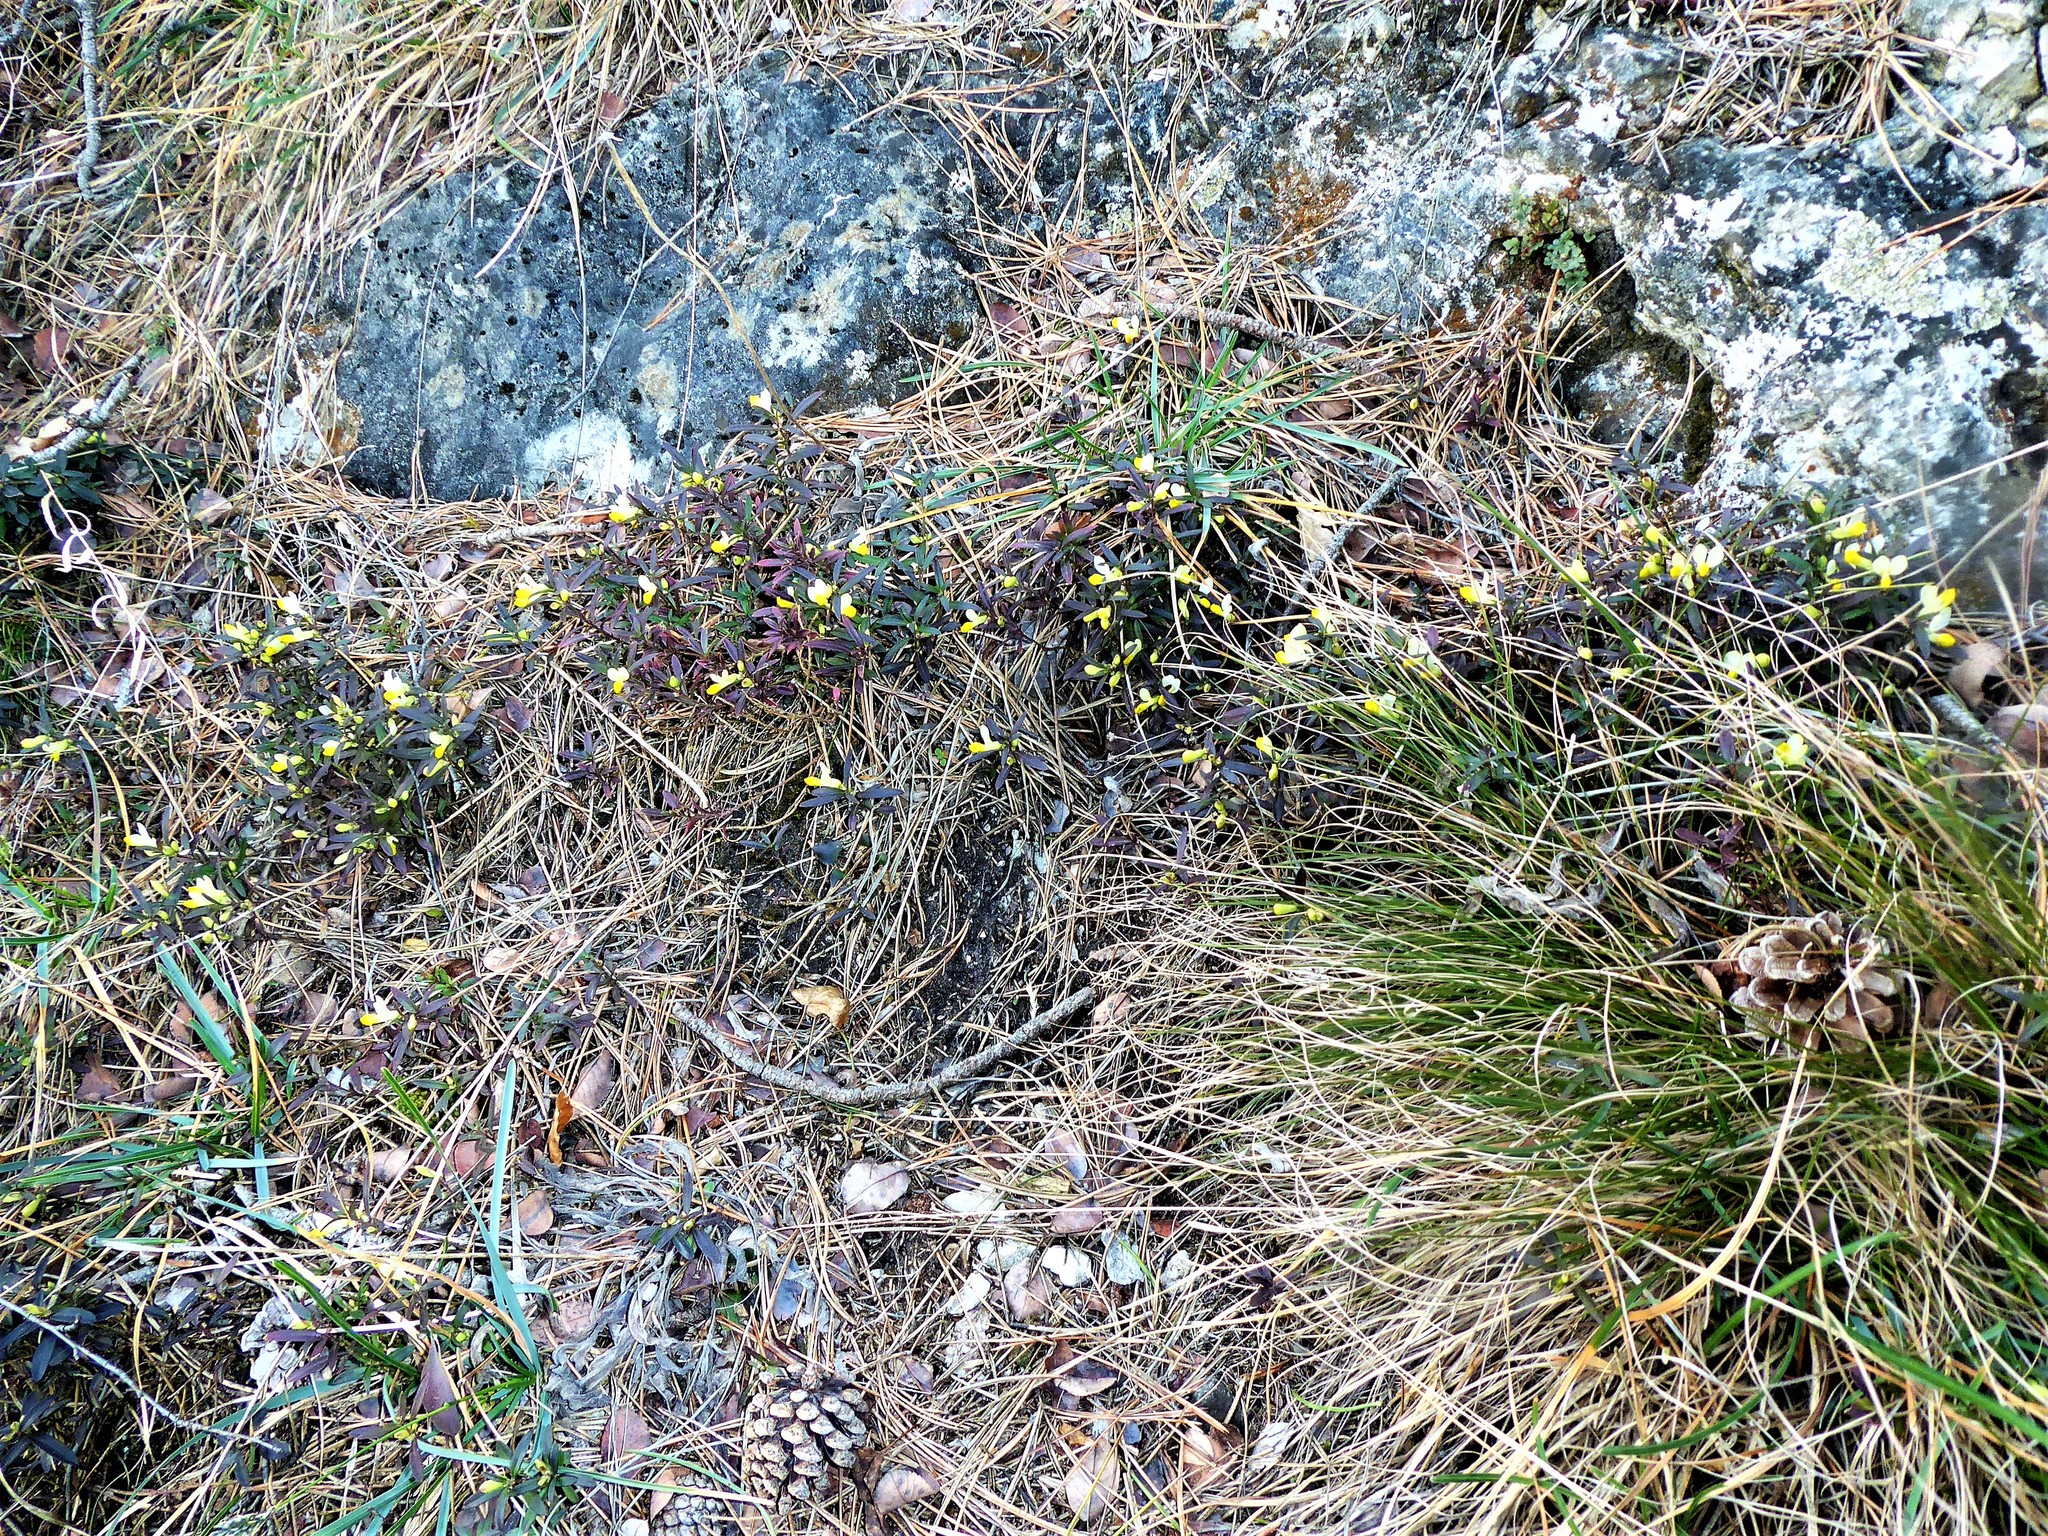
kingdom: Plantae
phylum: Tracheophyta
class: Magnoliopsida
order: Fabales
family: Polygalaceae
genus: Polygaloides
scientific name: Polygaloides chamaebuxus
